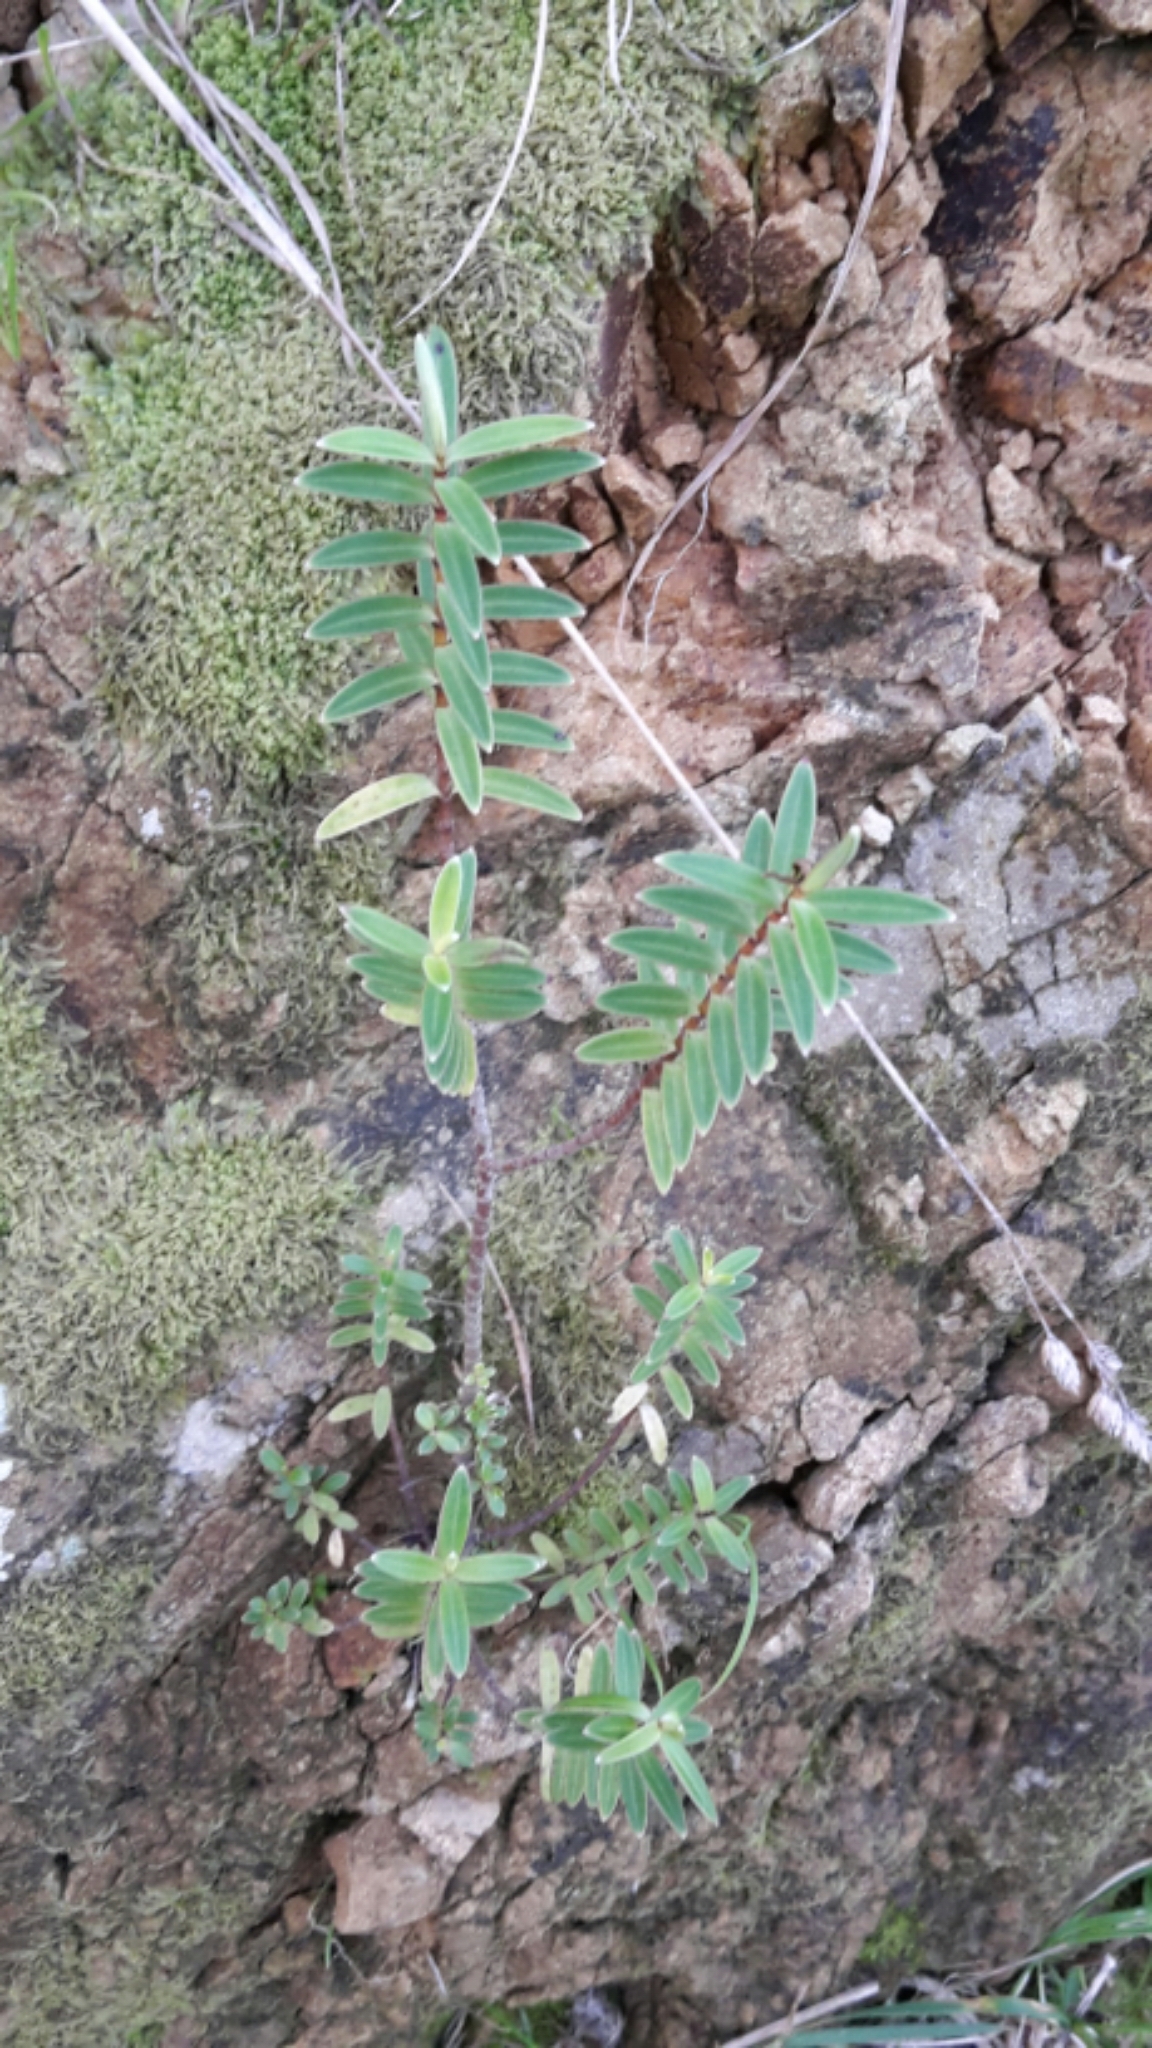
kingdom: Plantae
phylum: Tracheophyta
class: Magnoliopsida
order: Lamiales
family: Plantaginaceae
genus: Veronica
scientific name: Veronica parviflora
